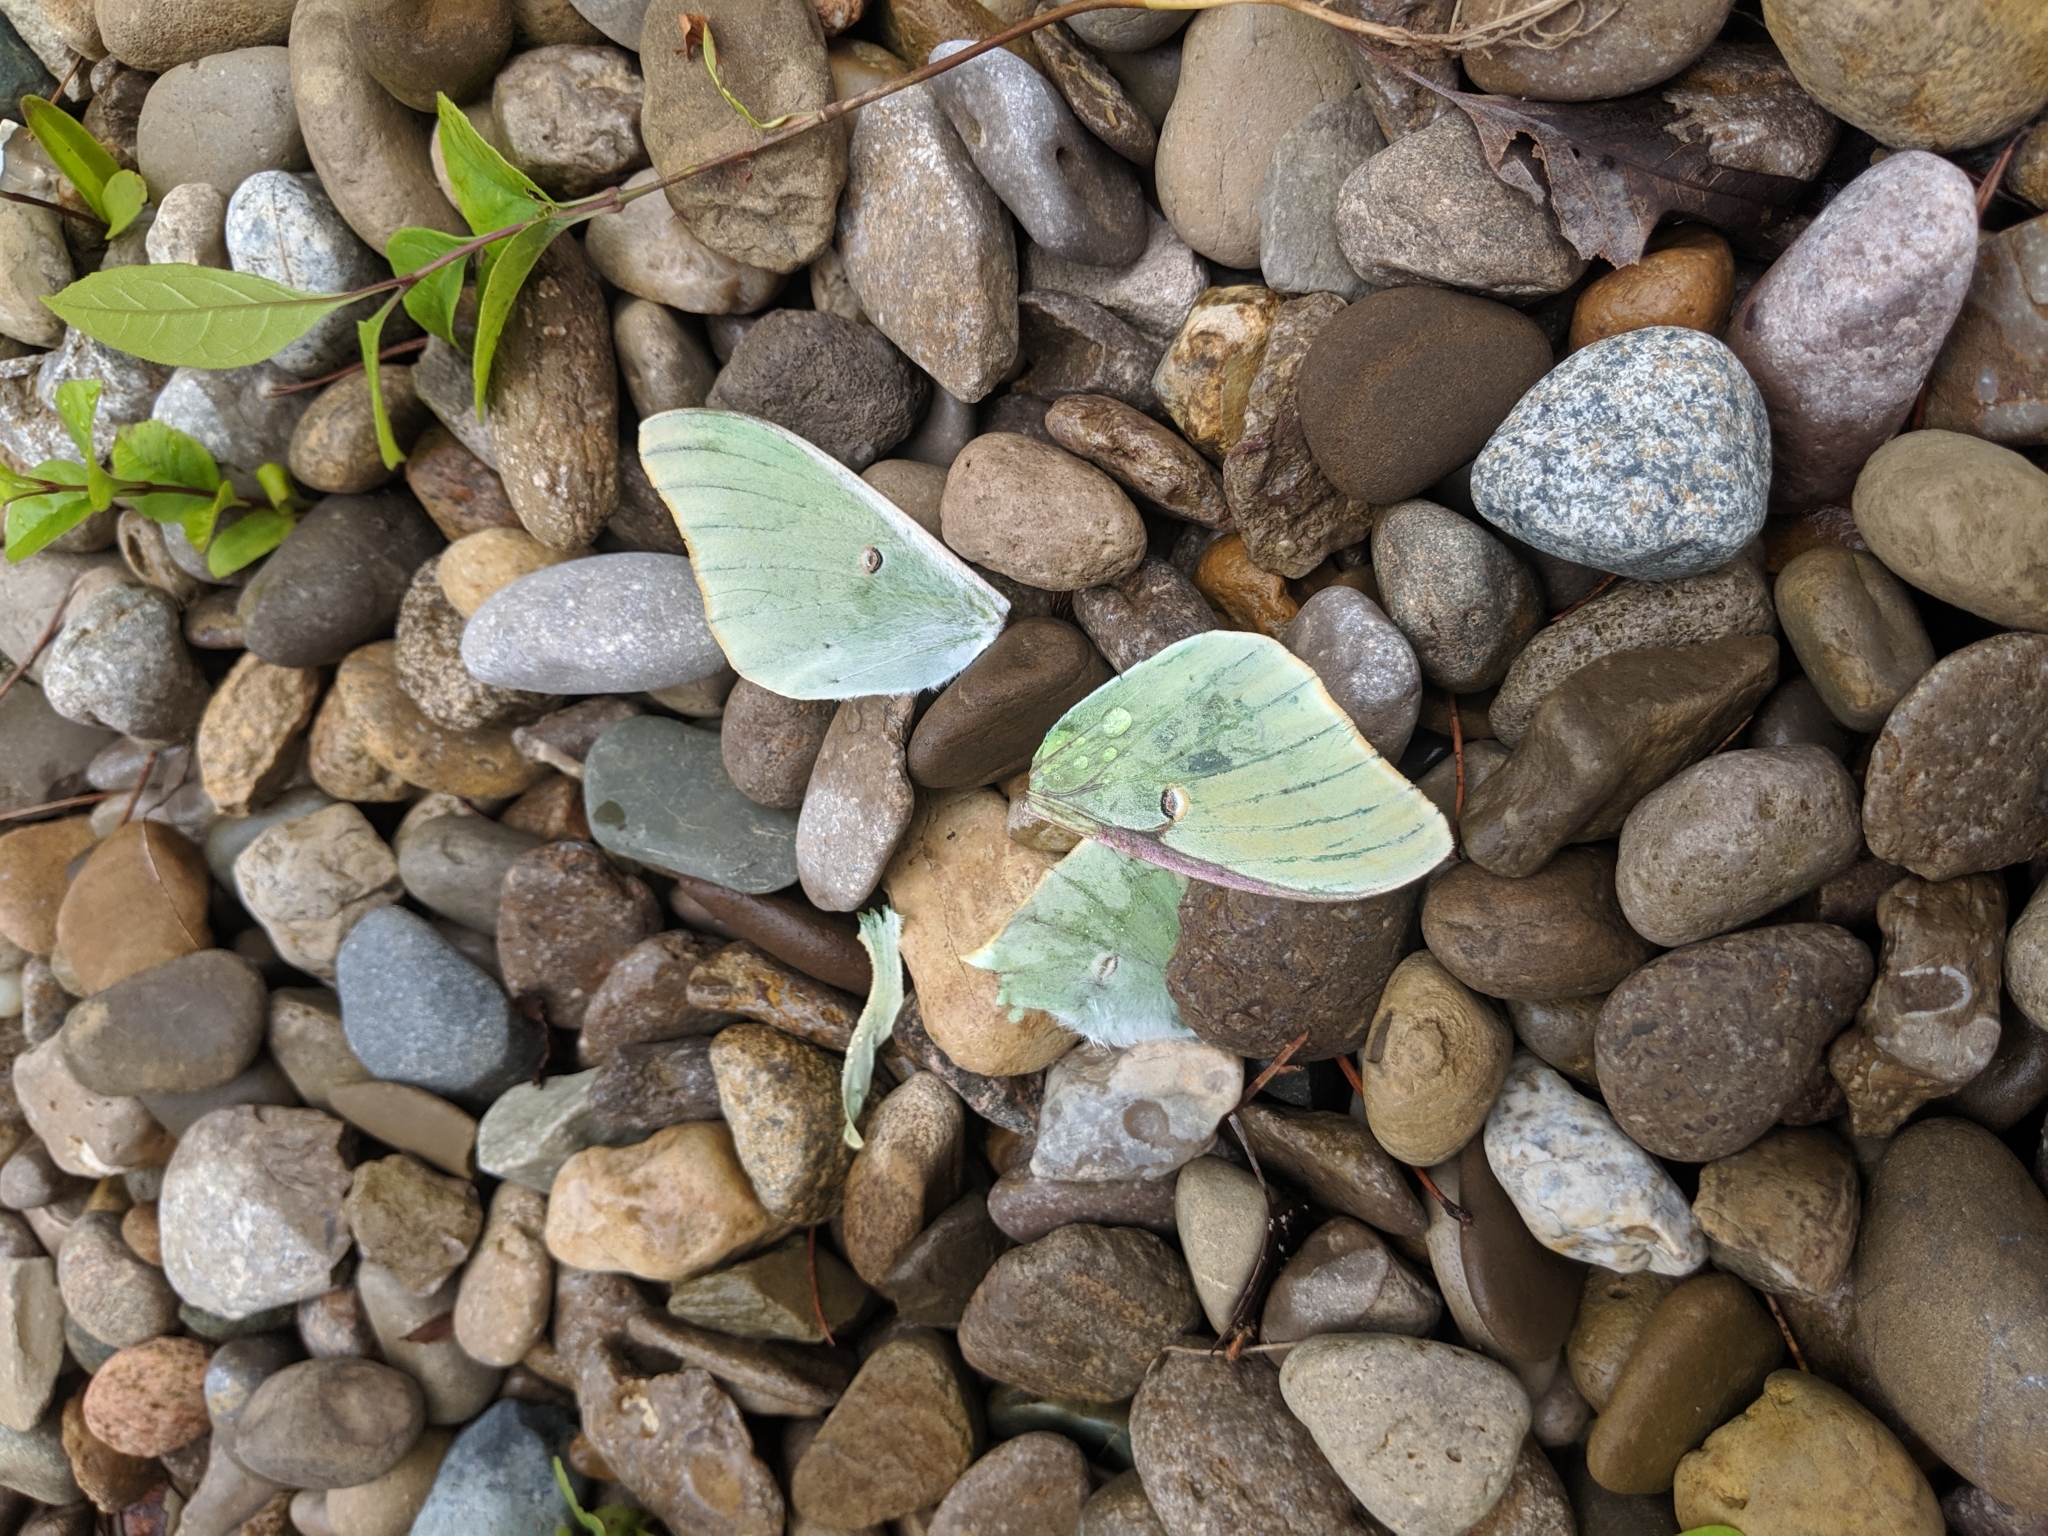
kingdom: Animalia
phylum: Arthropoda
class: Insecta
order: Lepidoptera
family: Saturniidae
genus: Actias
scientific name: Actias luna
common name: Luna moth
